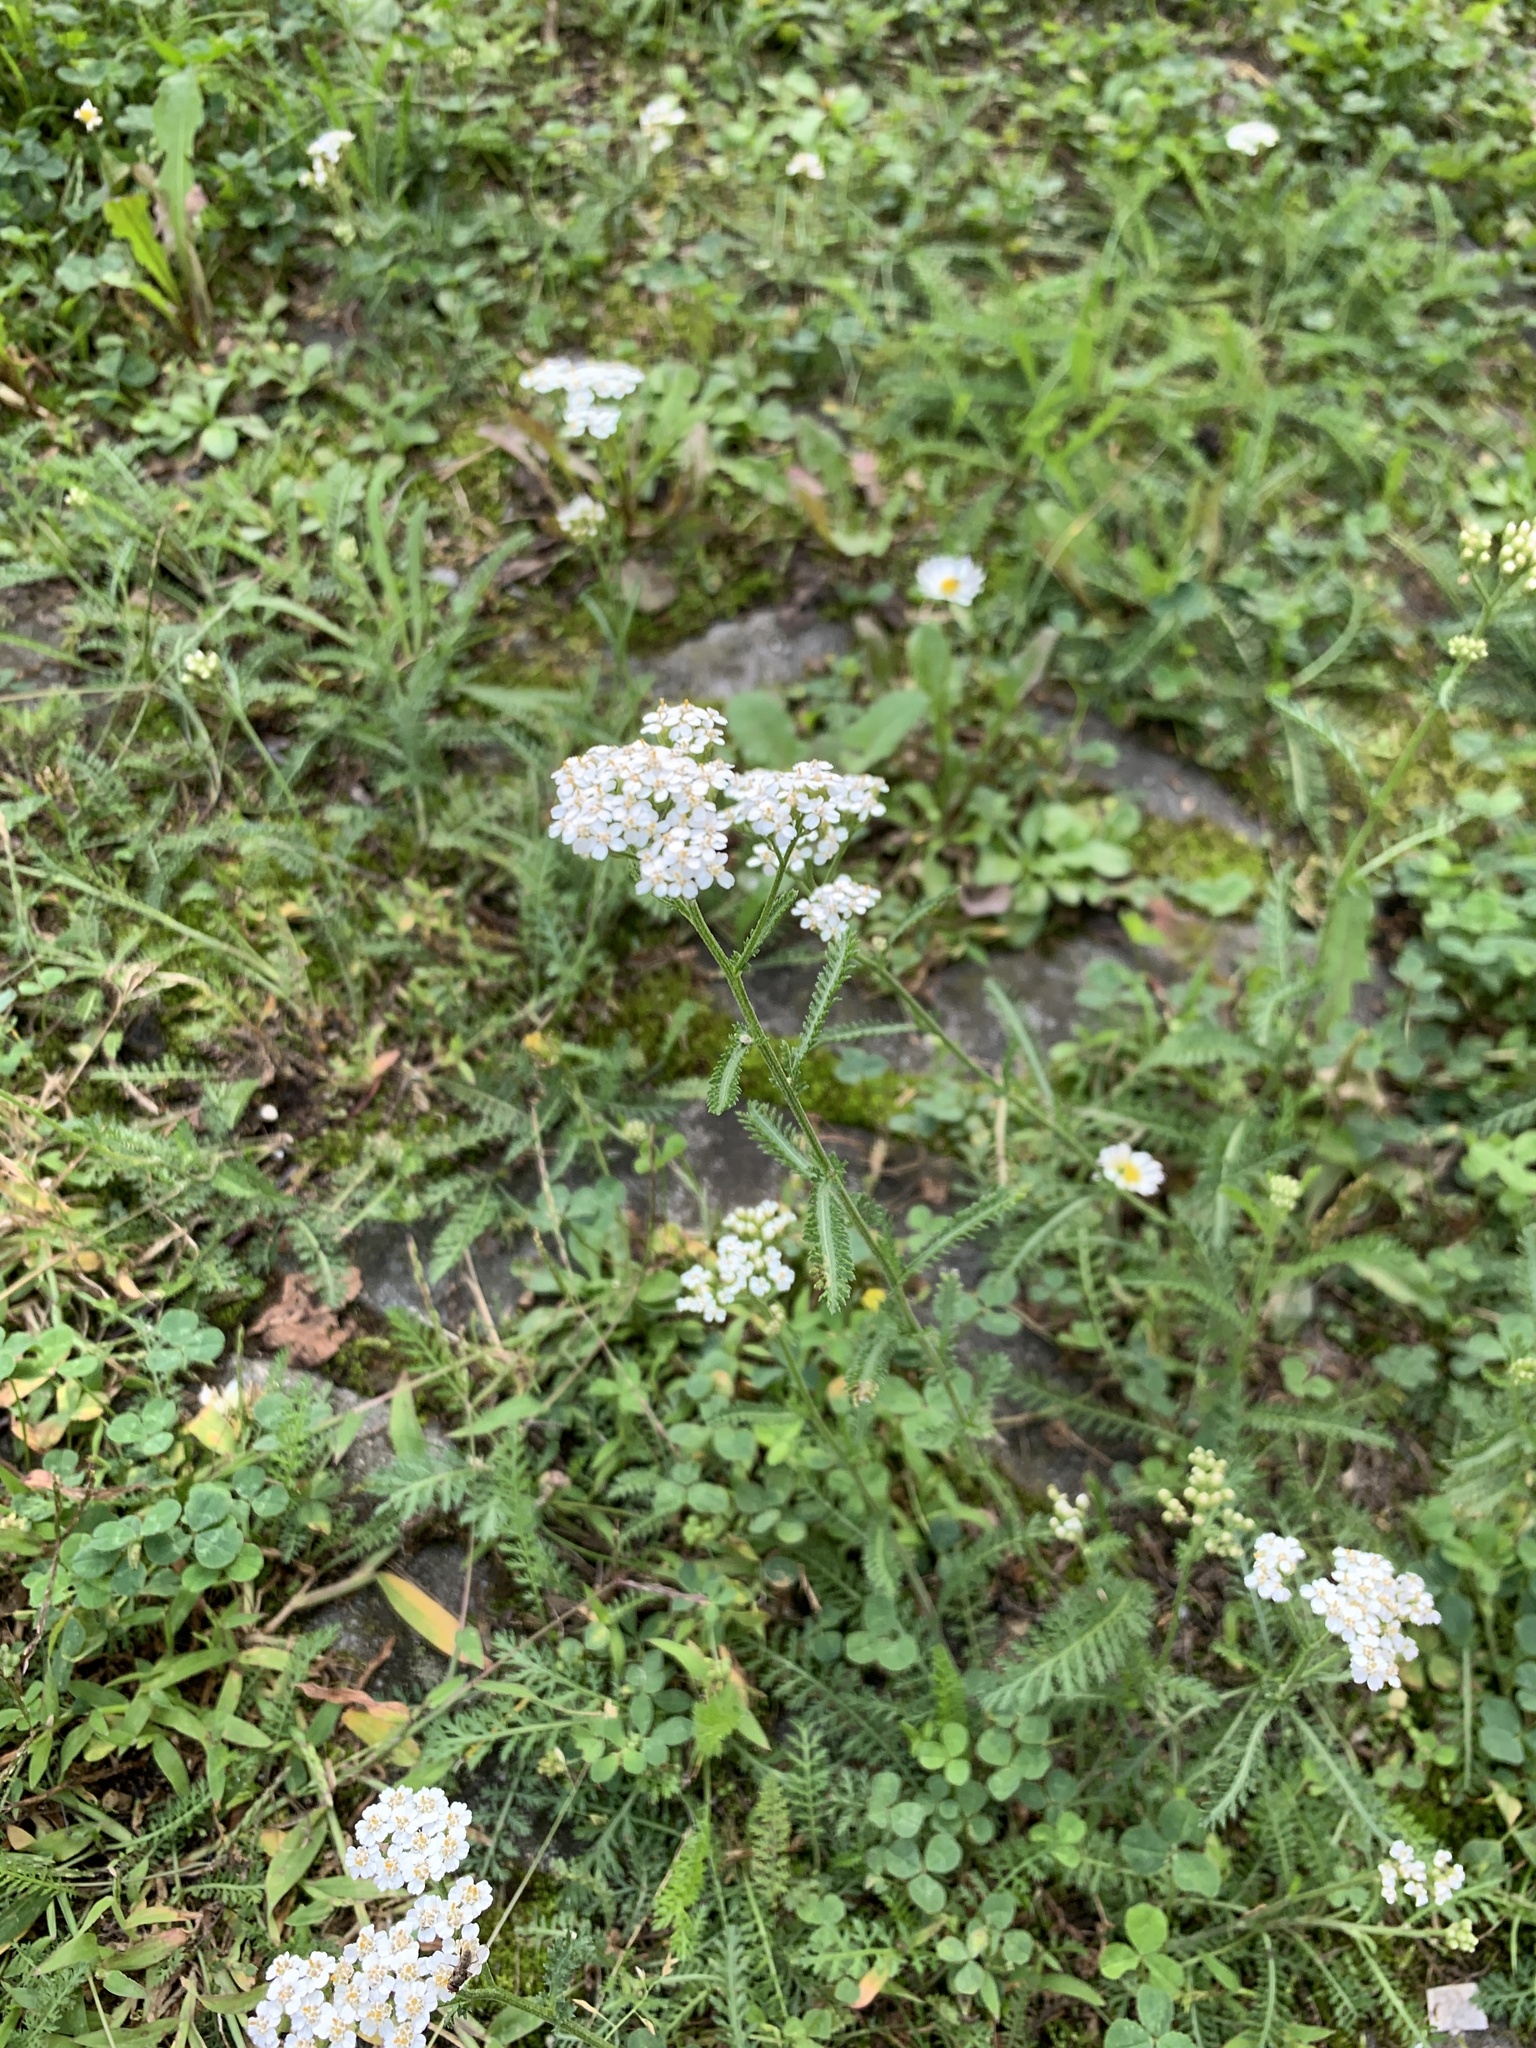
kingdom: Plantae
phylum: Tracheophyta
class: Magnoliopsida
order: Asterales
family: Asteraceae
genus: Achillea
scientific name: Achillea millefolium
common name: Yarrow
